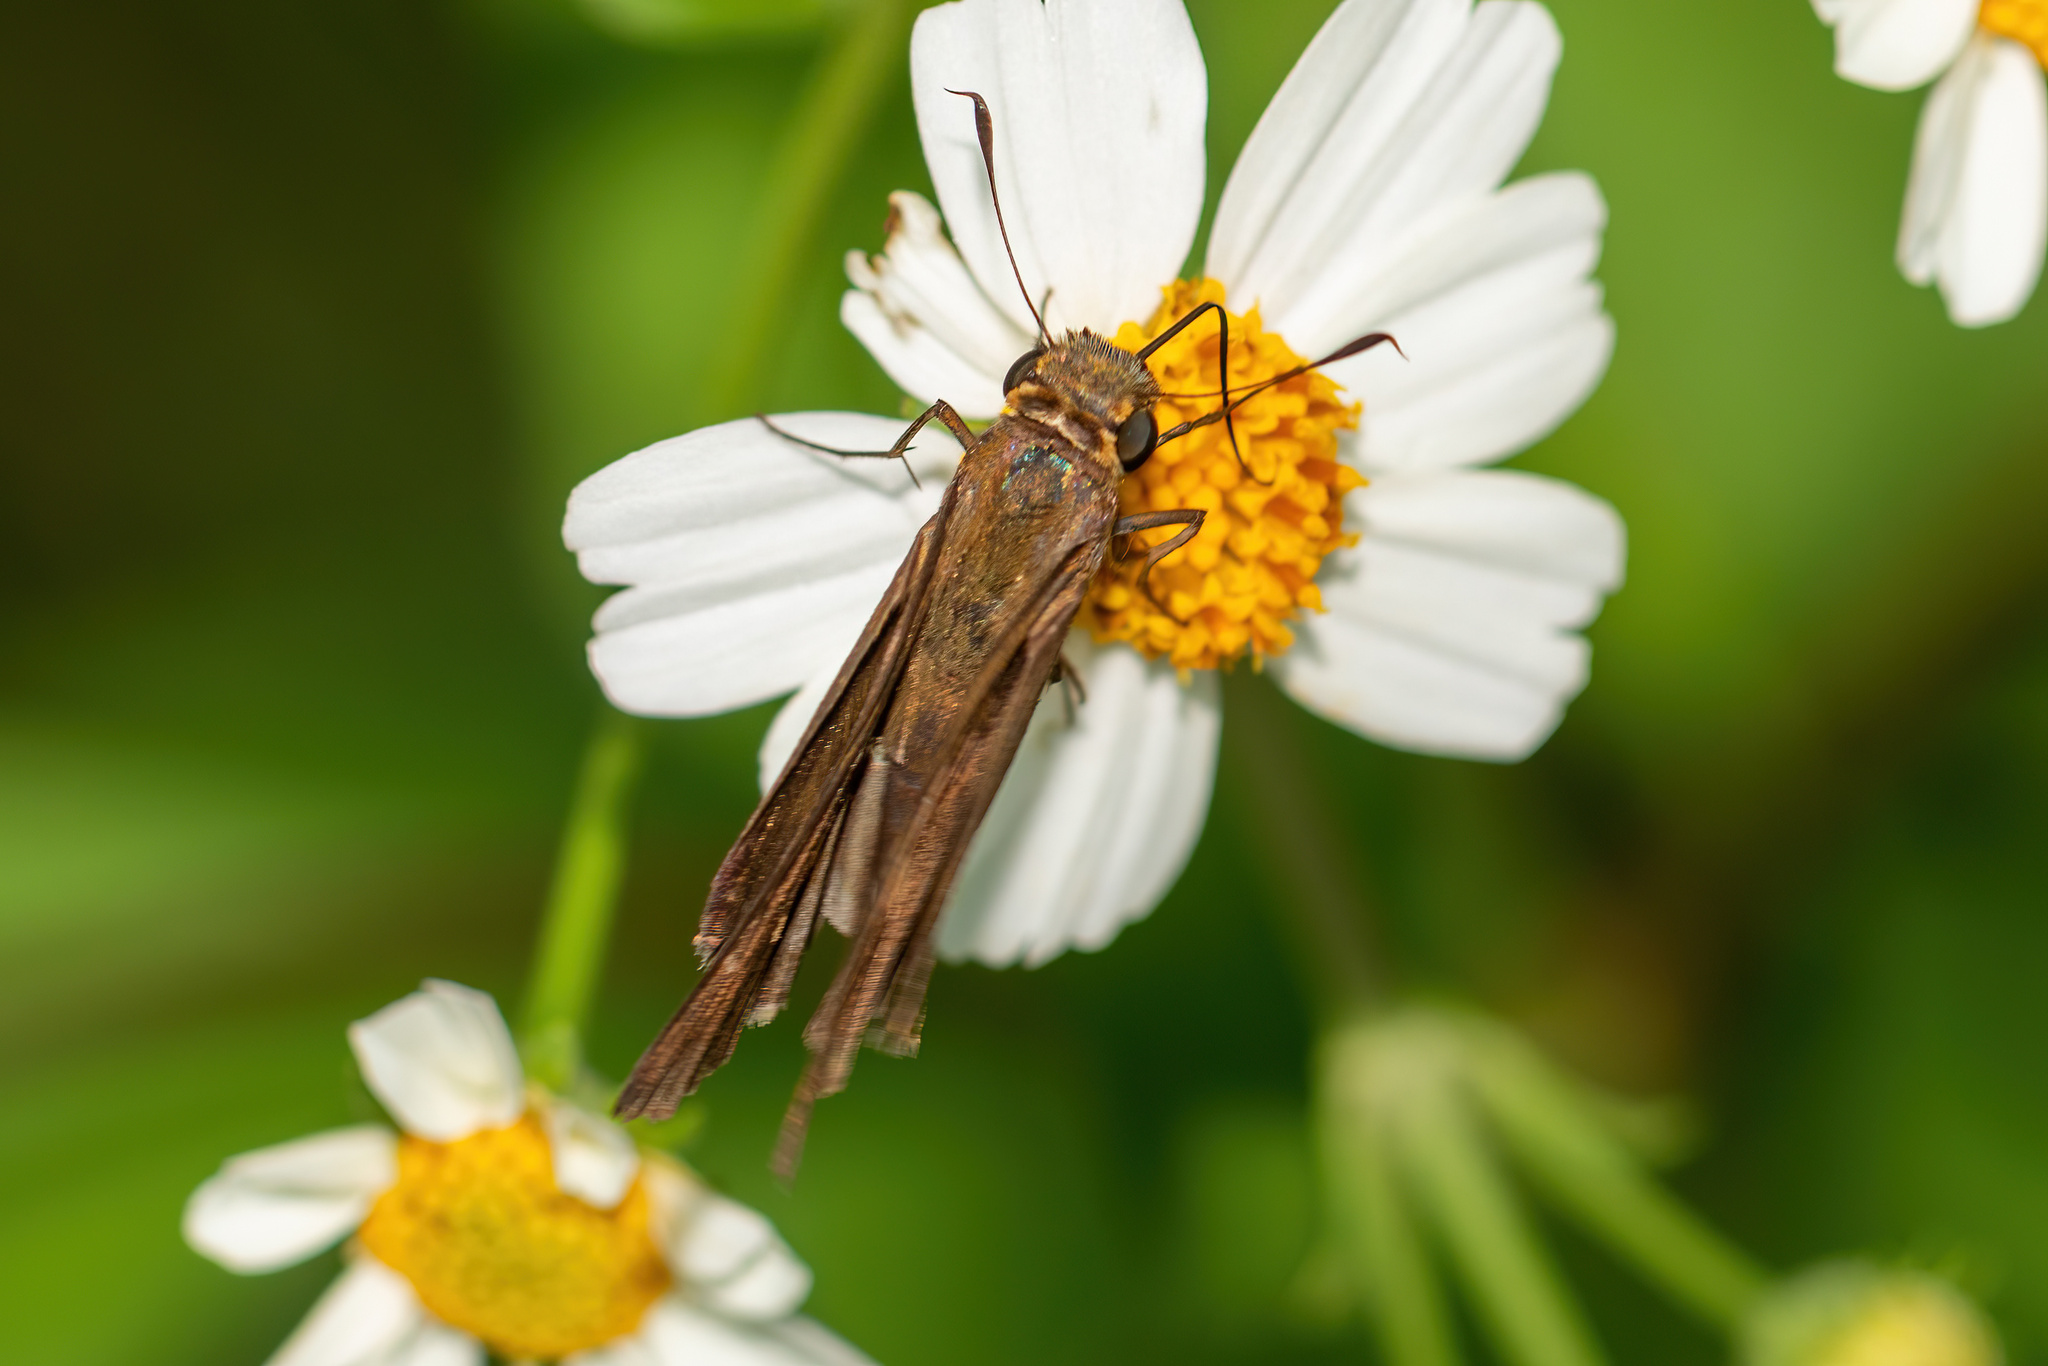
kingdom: Animalia
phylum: Arthropoda
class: Insecta
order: Lepidoptera
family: Hesperiidae
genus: Panoquina
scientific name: Panoquina ocola
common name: Ocola skipper
